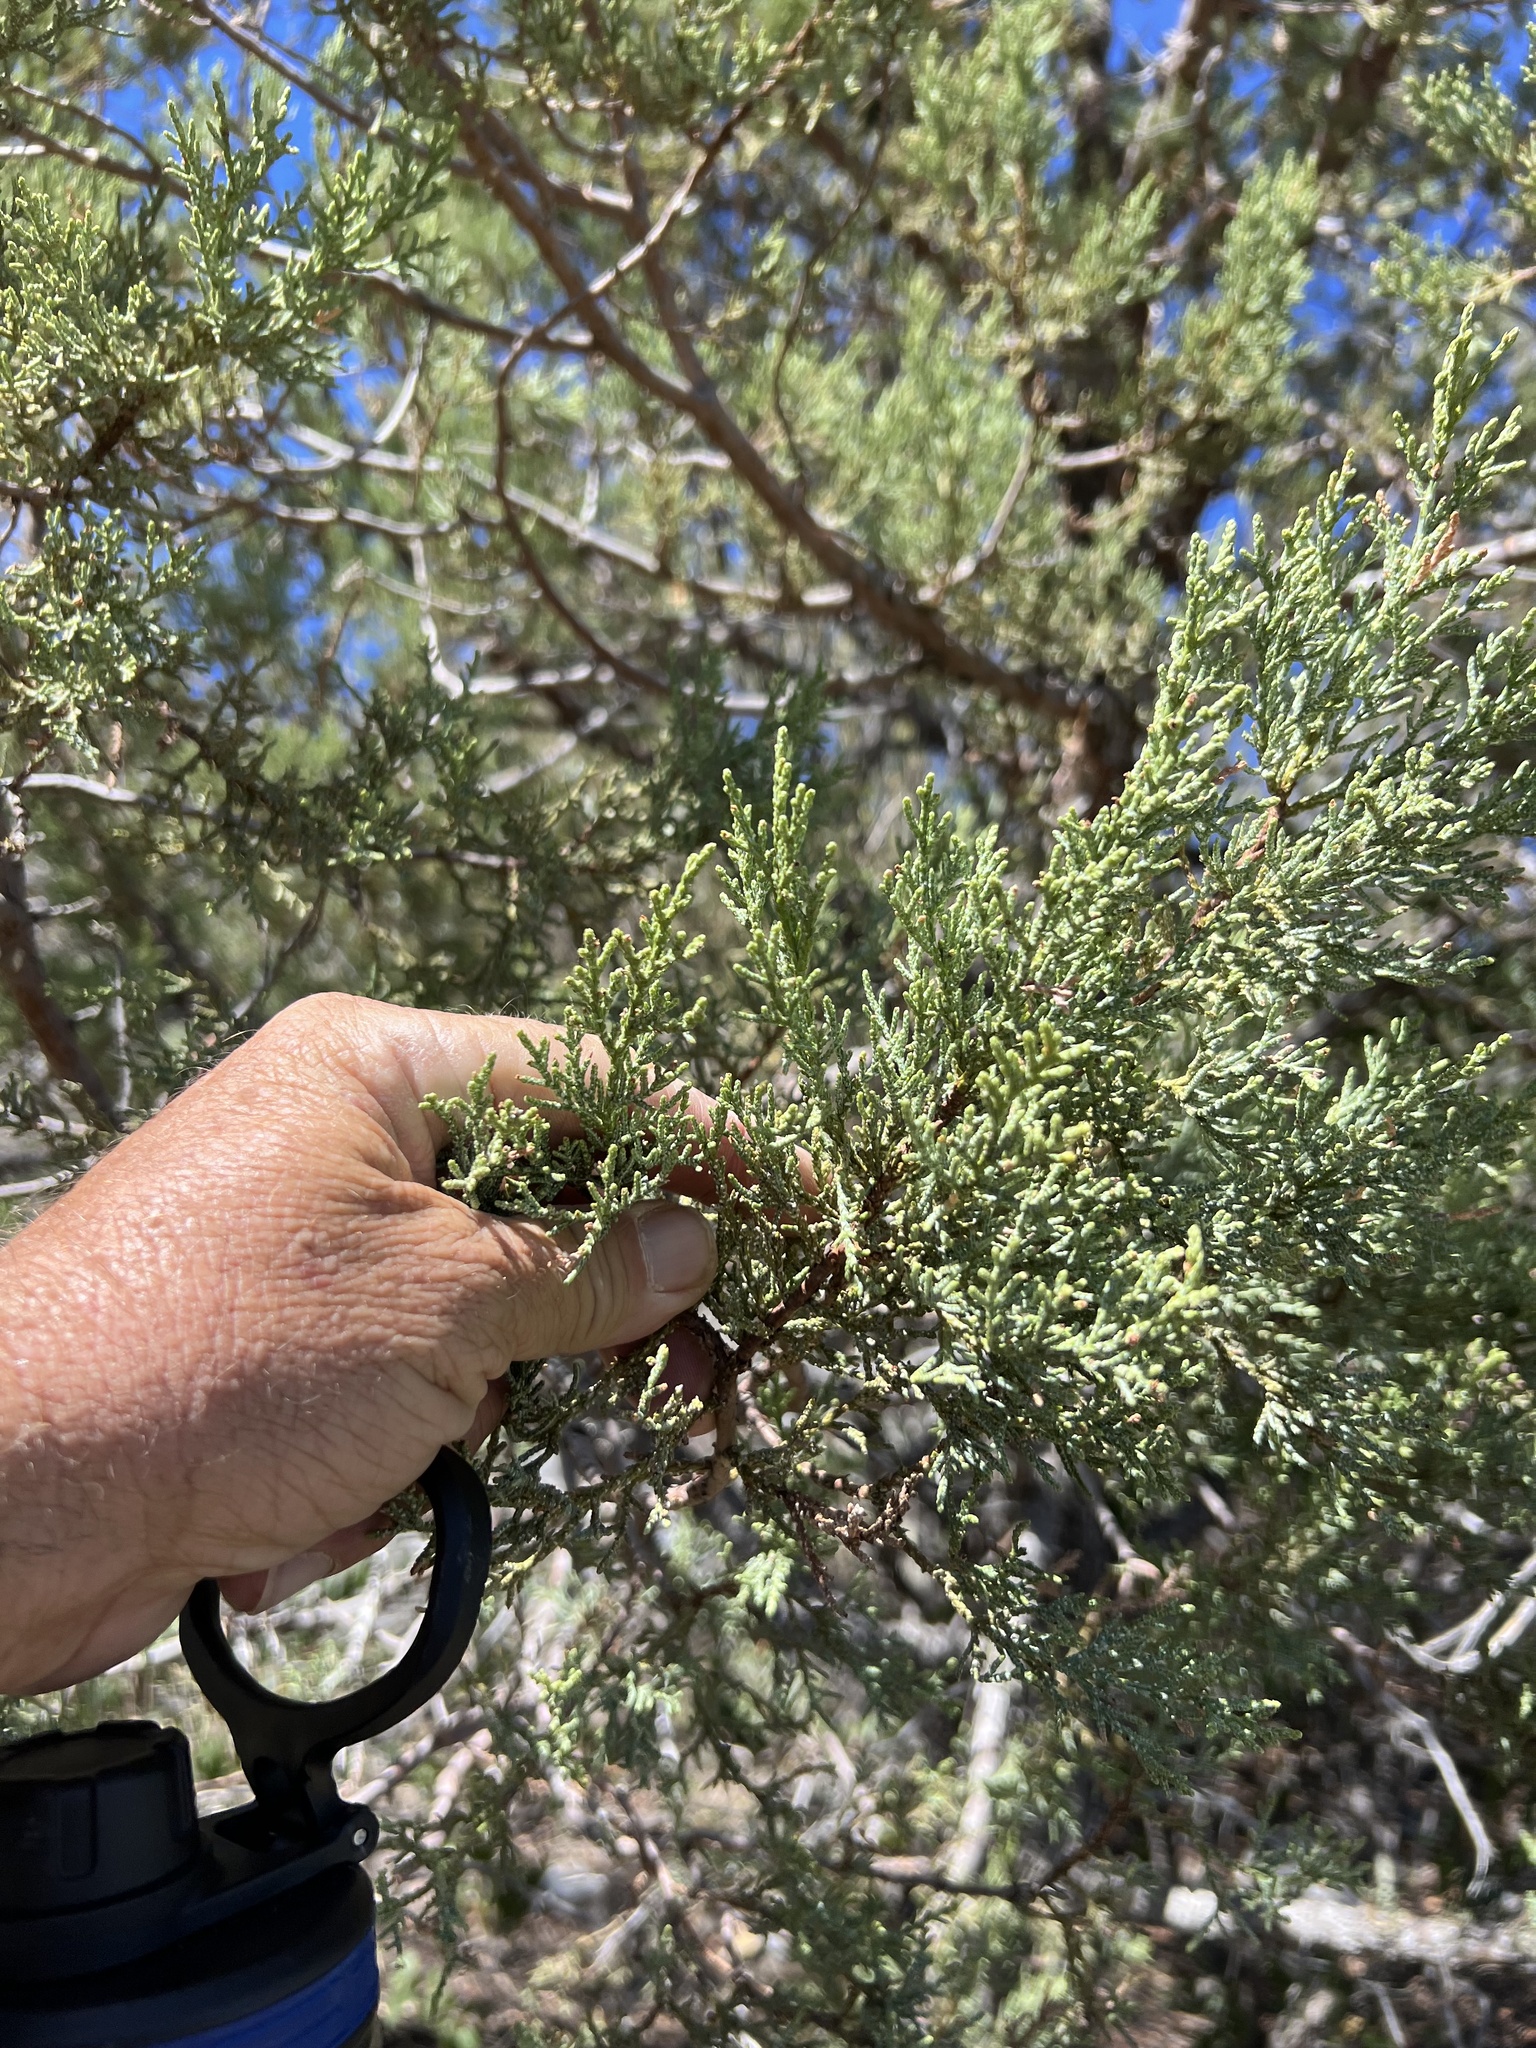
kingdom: Plantae
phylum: Tracheophyta
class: Pinopsida
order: Pinales
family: Cupressaceae
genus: Juniperus
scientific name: Juniperus deppeana
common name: Alligator juniper
